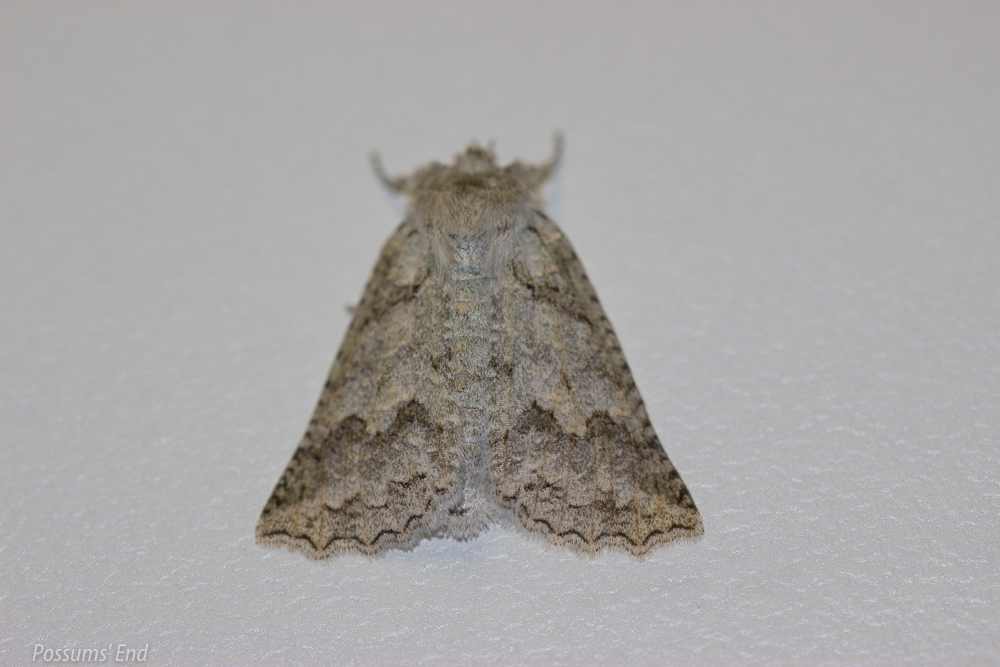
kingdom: Animalia
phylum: Arthropoda
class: Insecta
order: Lepidoptera
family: Geometridae
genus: Declana
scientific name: Declana niveata
